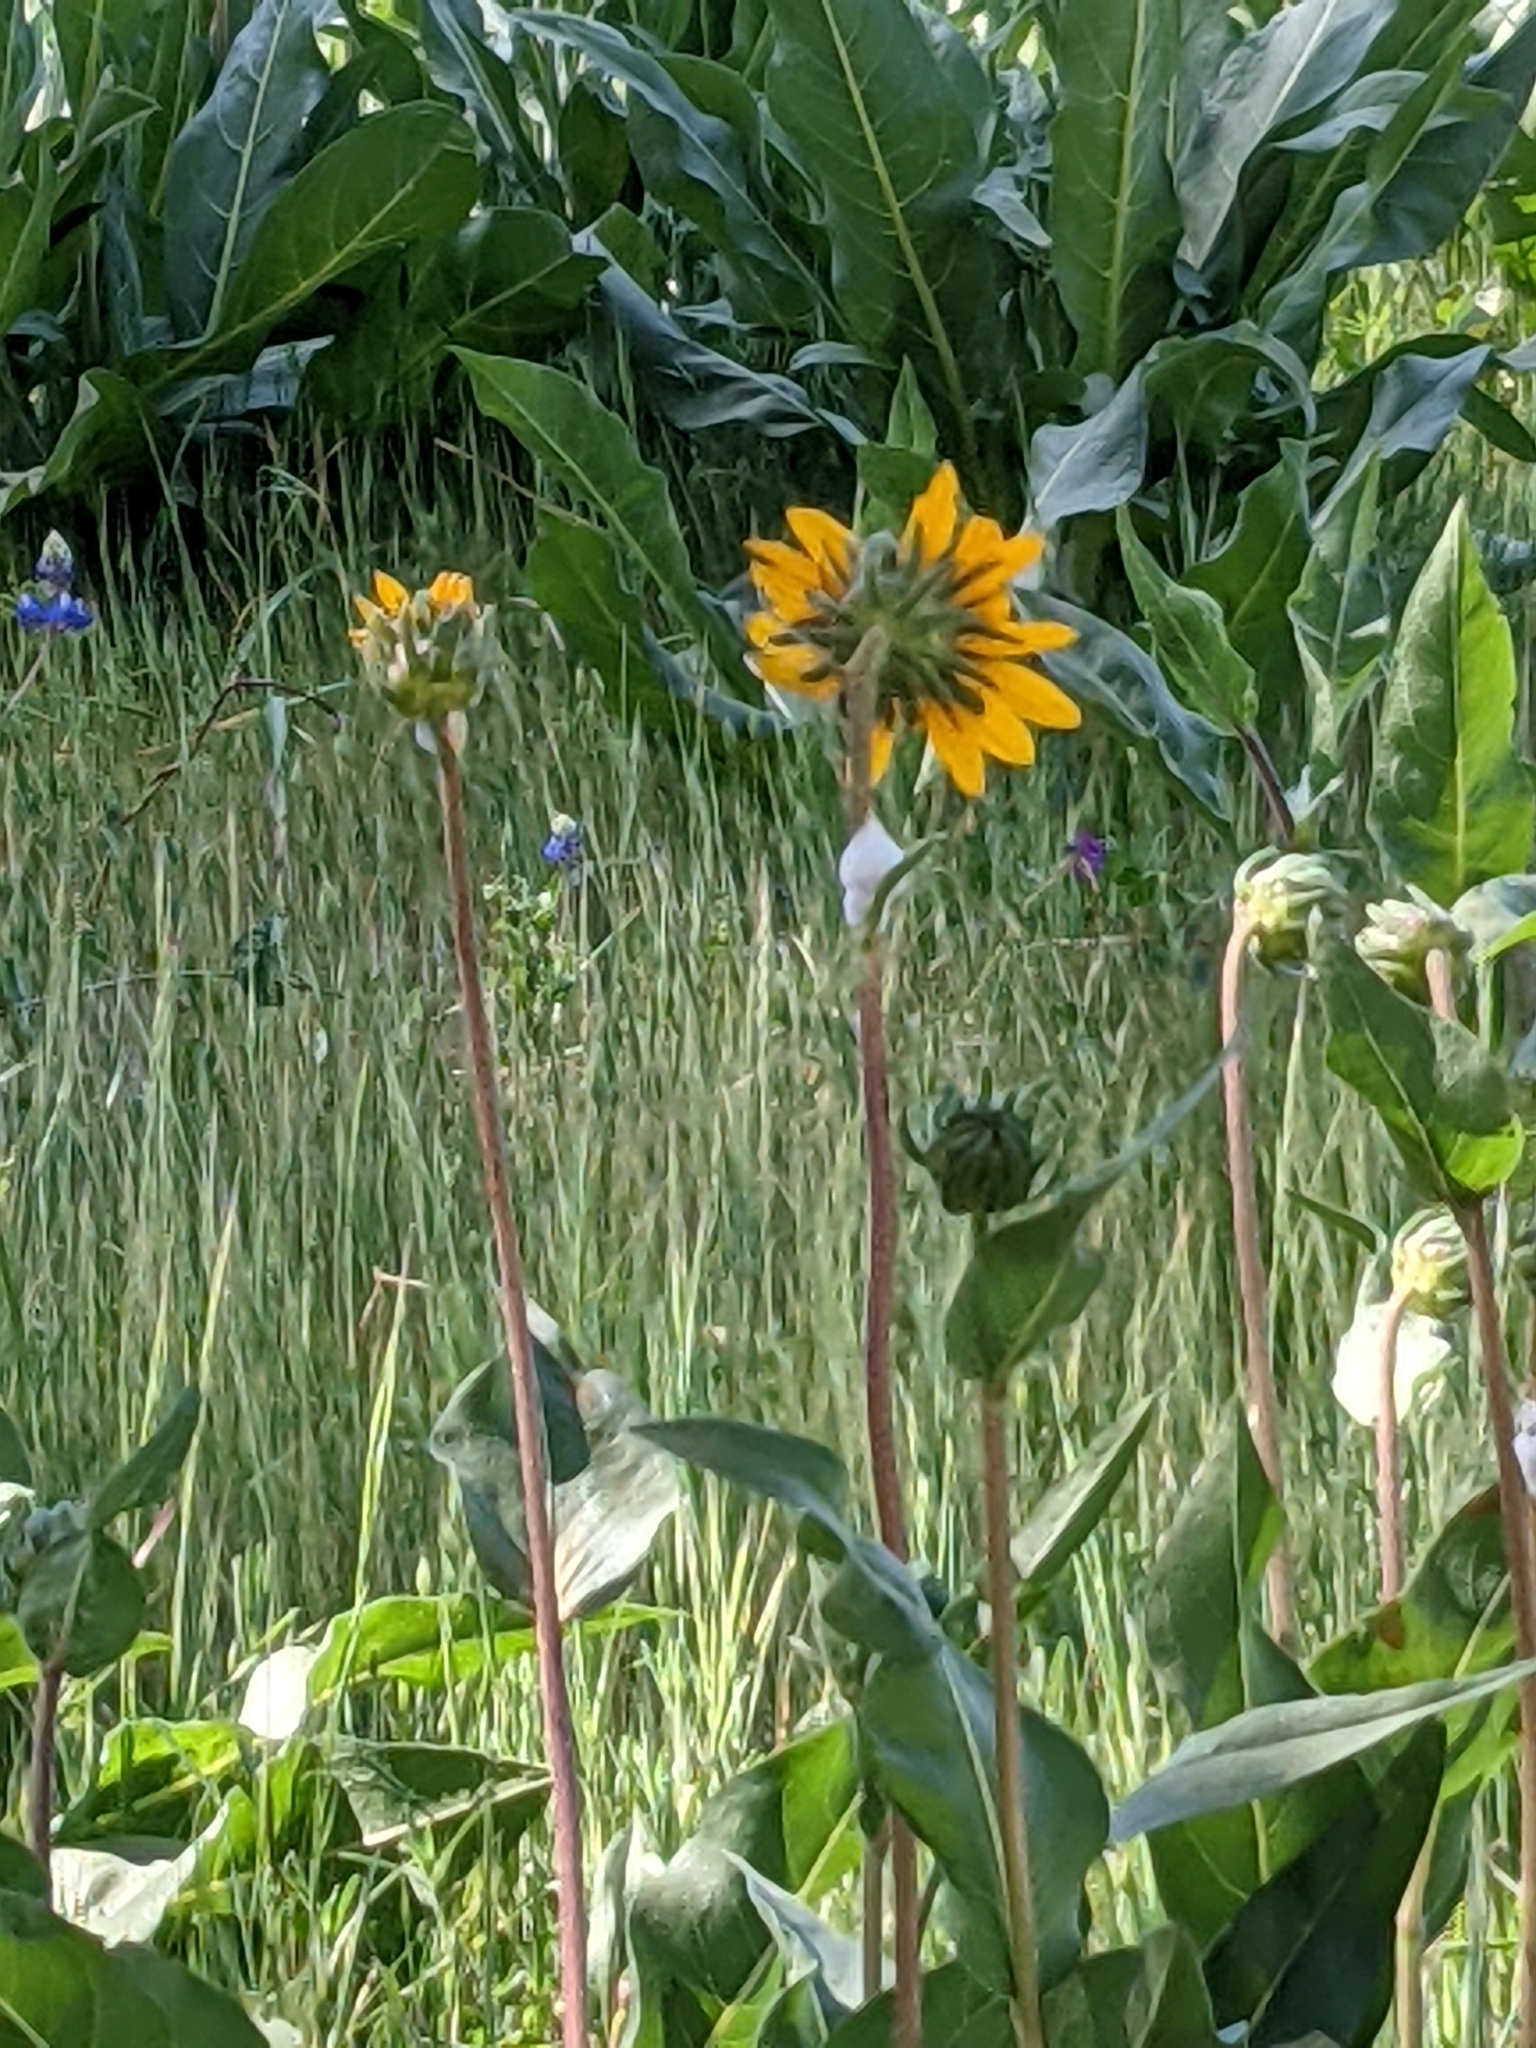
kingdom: Plantae
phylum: Tracheophyta
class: Magnoliopsida
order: Asterales
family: Asteraceae
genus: Wyethia
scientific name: Wyethia angustifolia
